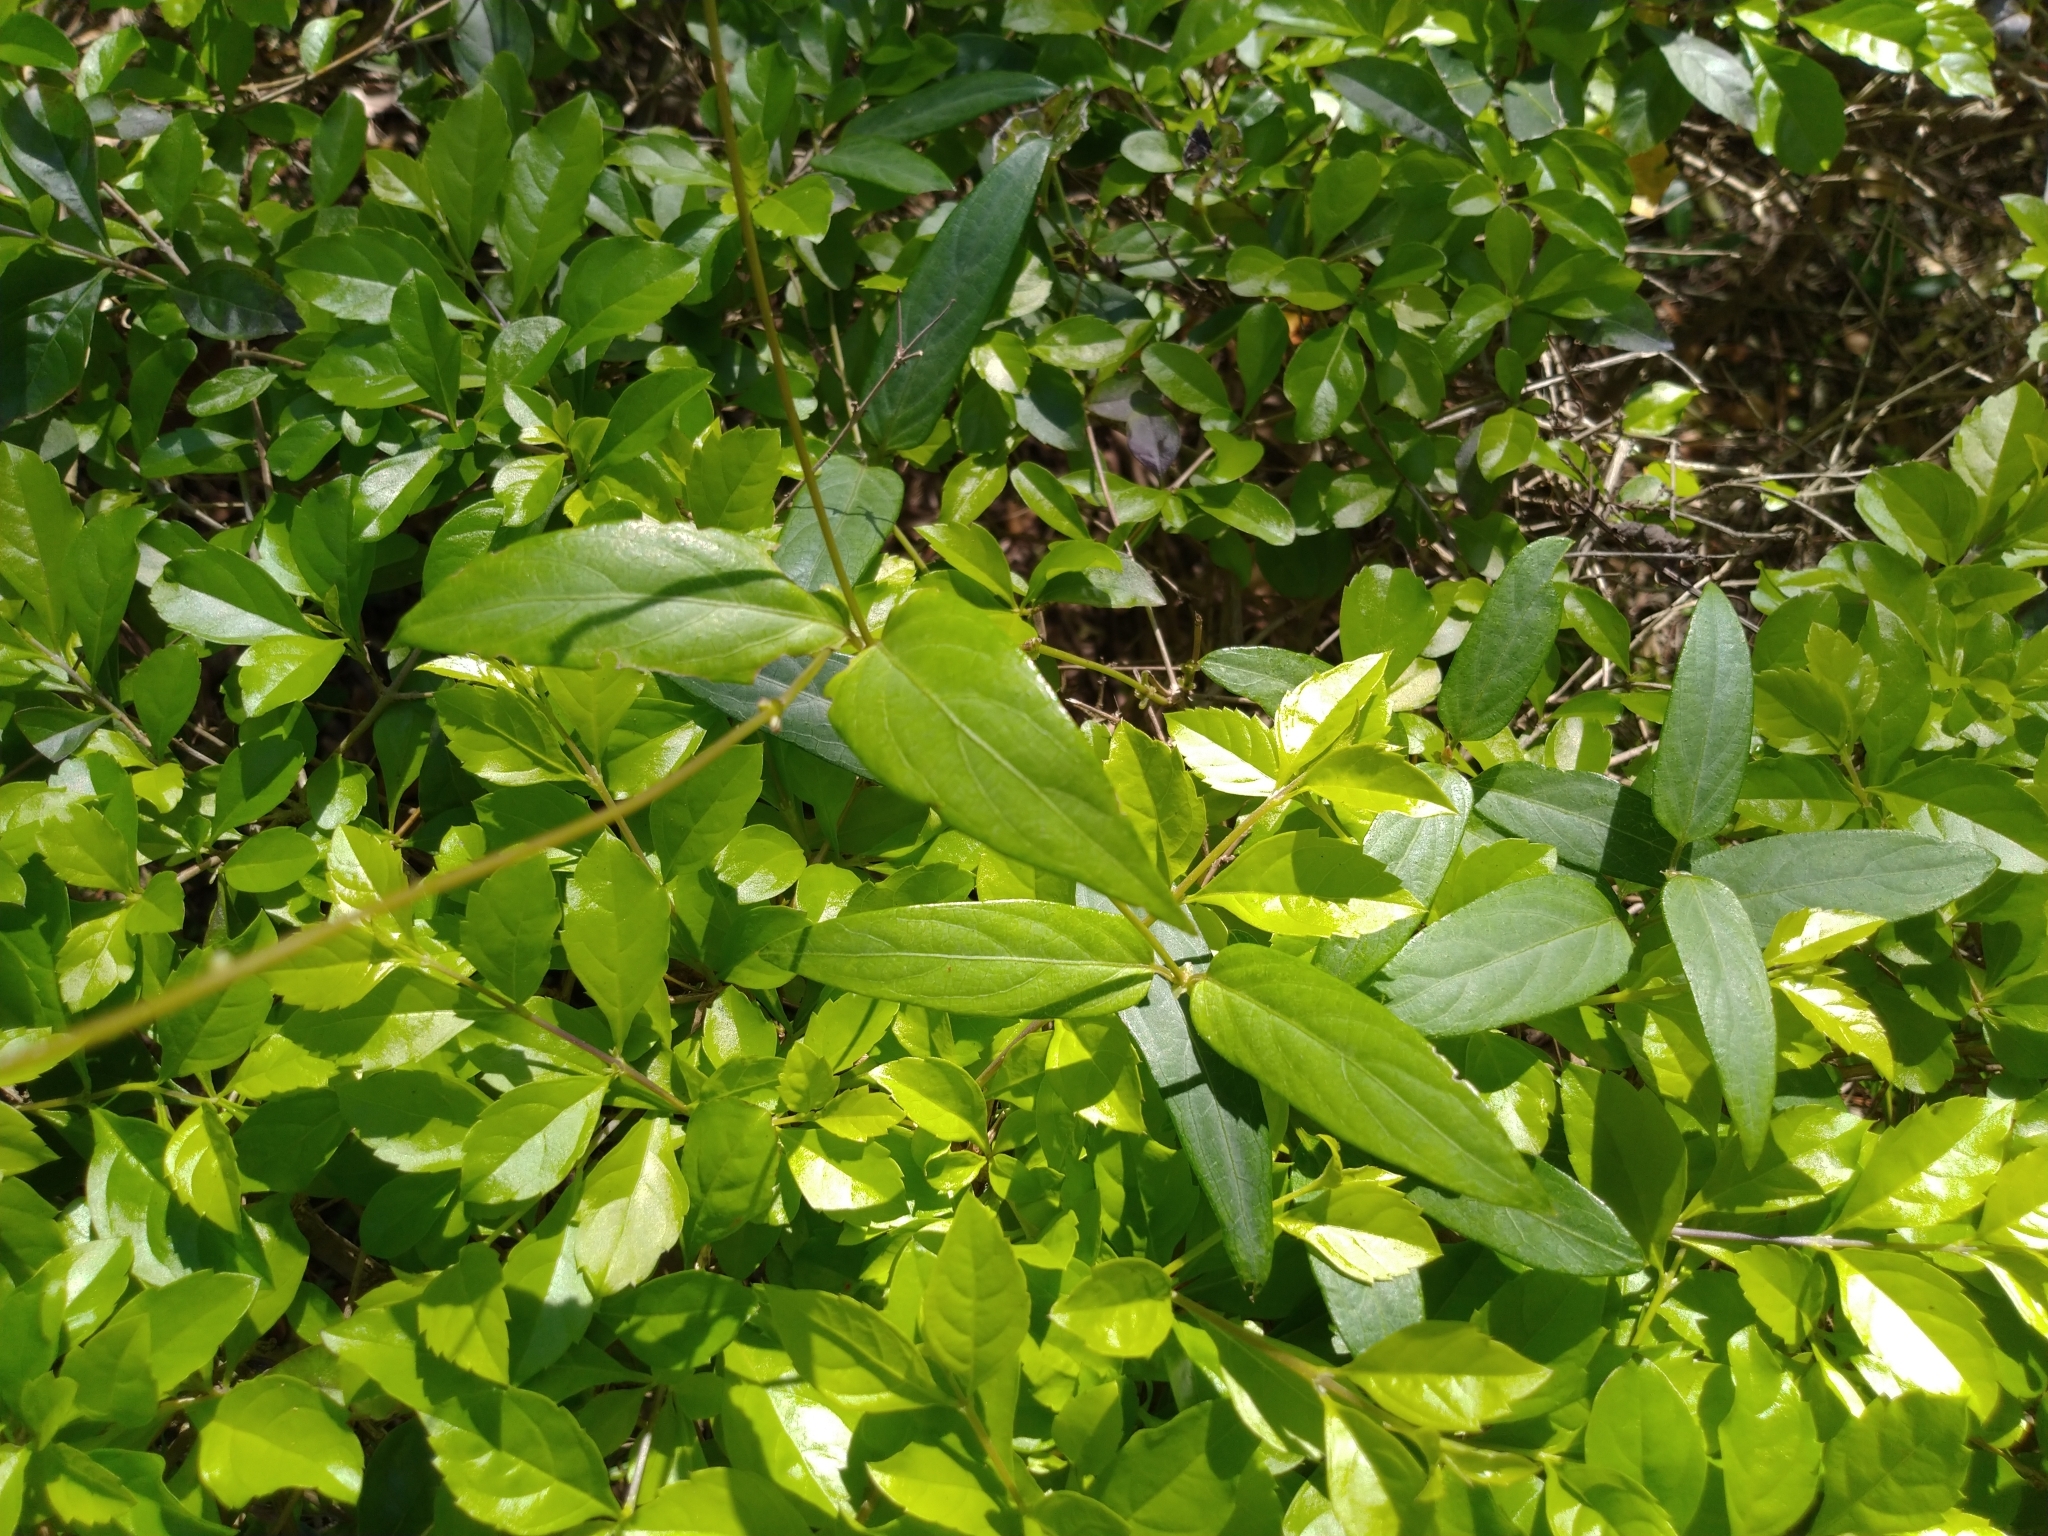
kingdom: Plantae
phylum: Tracheophyta
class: Magnoliopsida
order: Gentianales
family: Rubiaceae
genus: Paederia
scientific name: Paederia foetida
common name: Stinkvine
